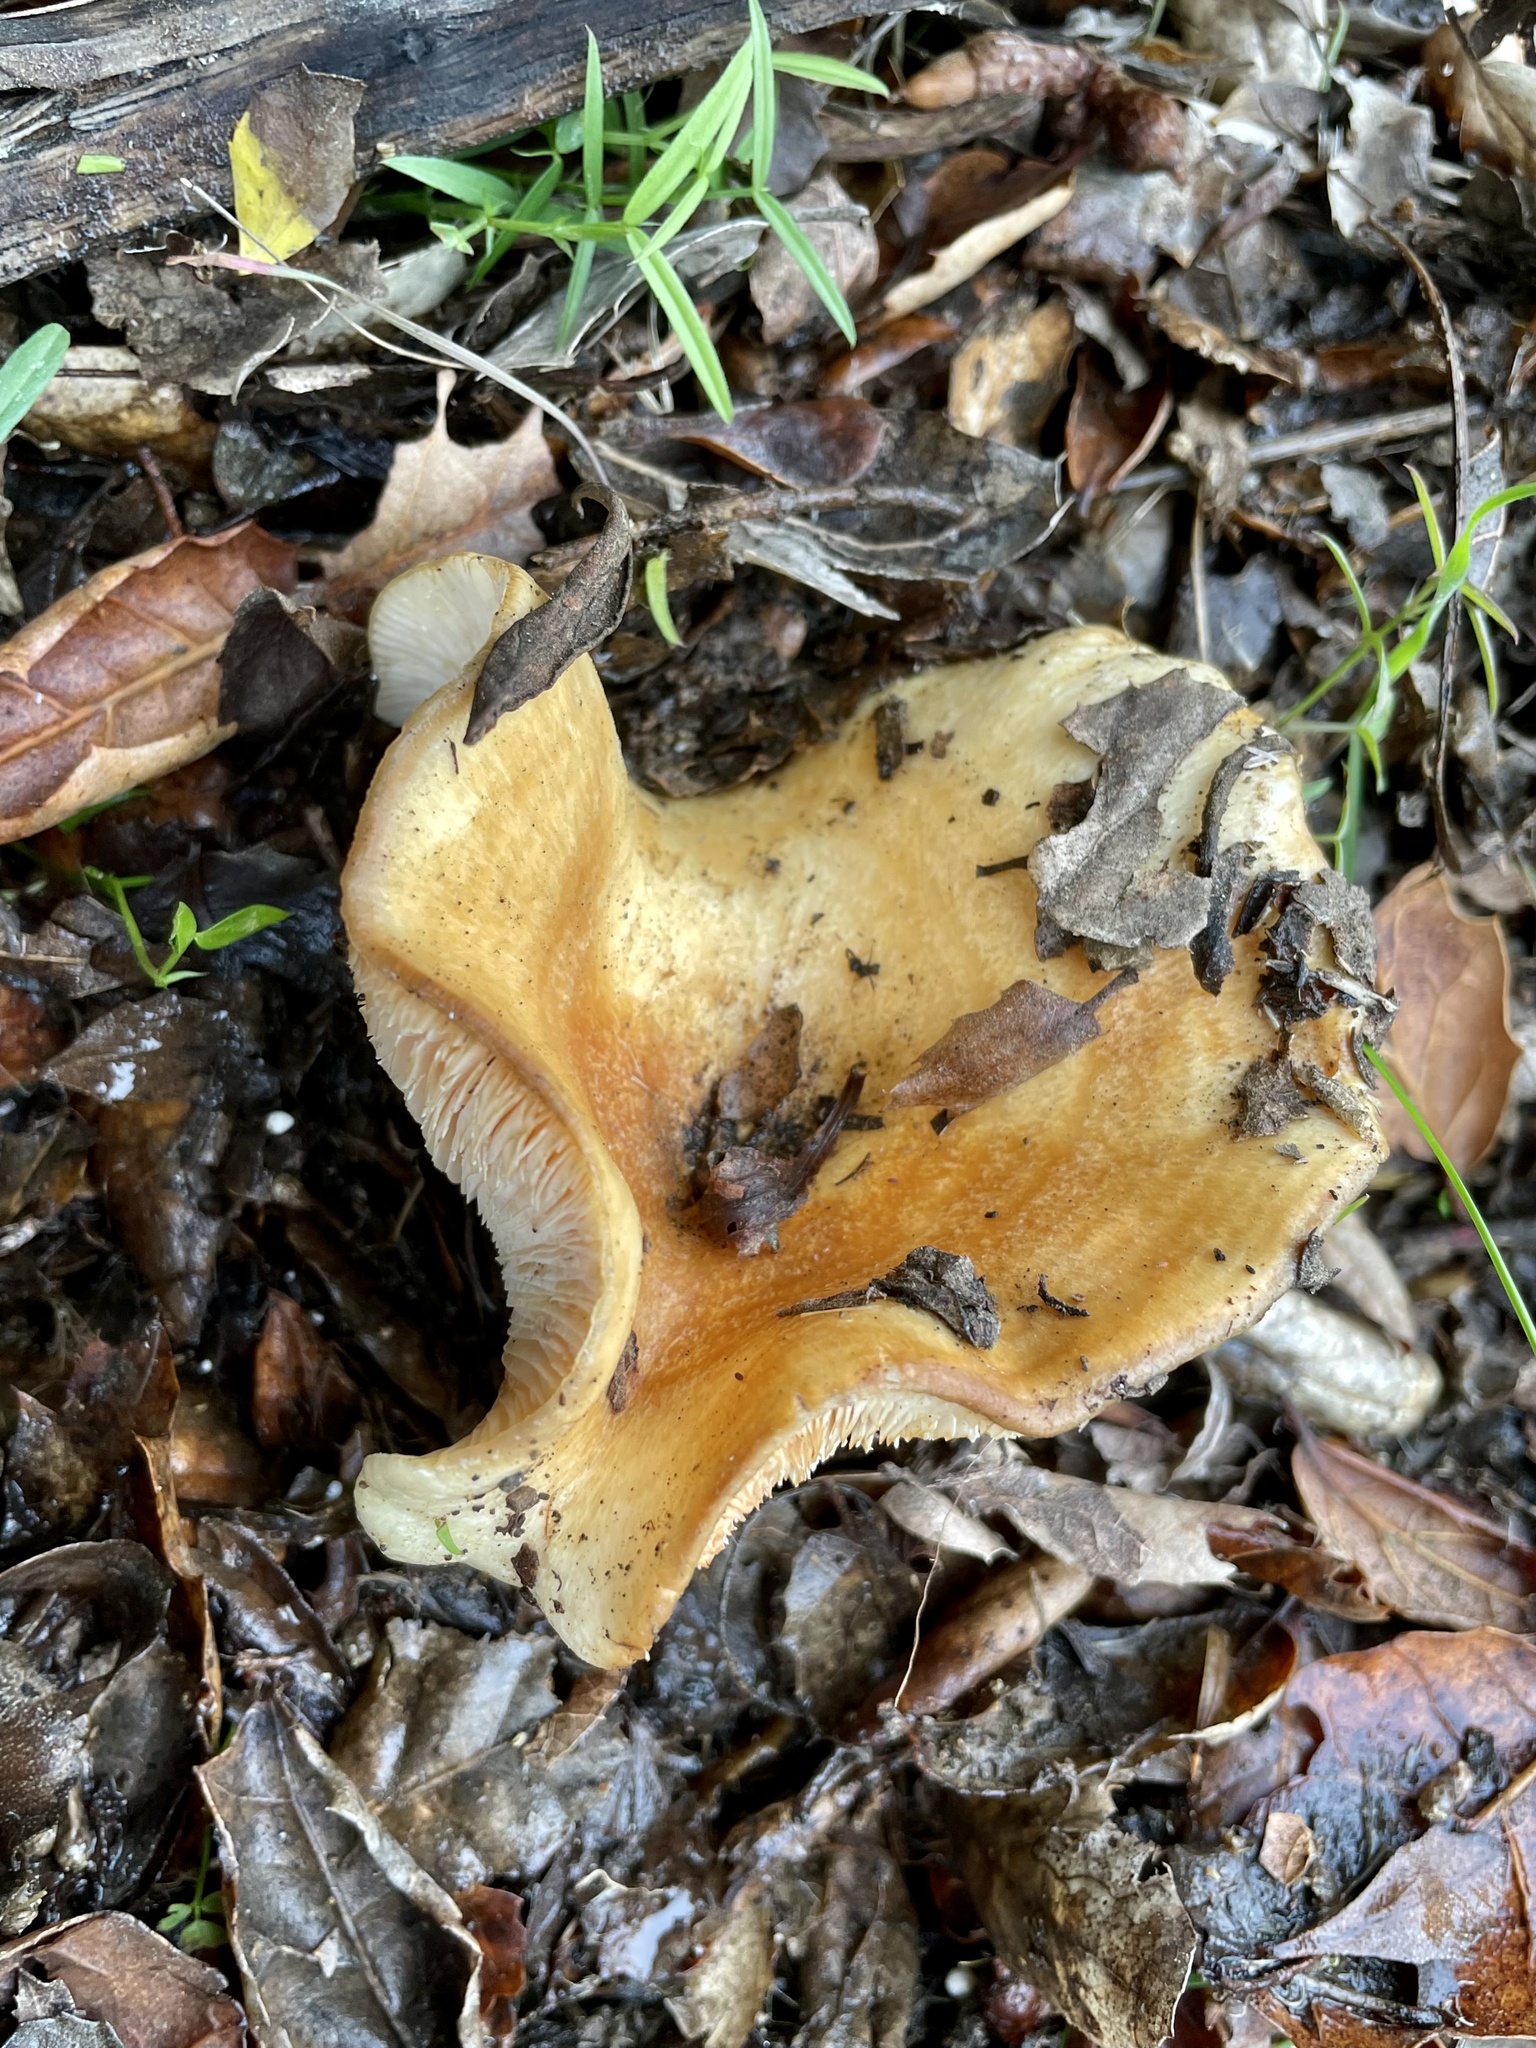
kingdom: Fungi
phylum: Basidiomycota
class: Agaricomycetes
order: Russulales
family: Russulaceae
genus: Lactarius
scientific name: Lactarius alnicola
